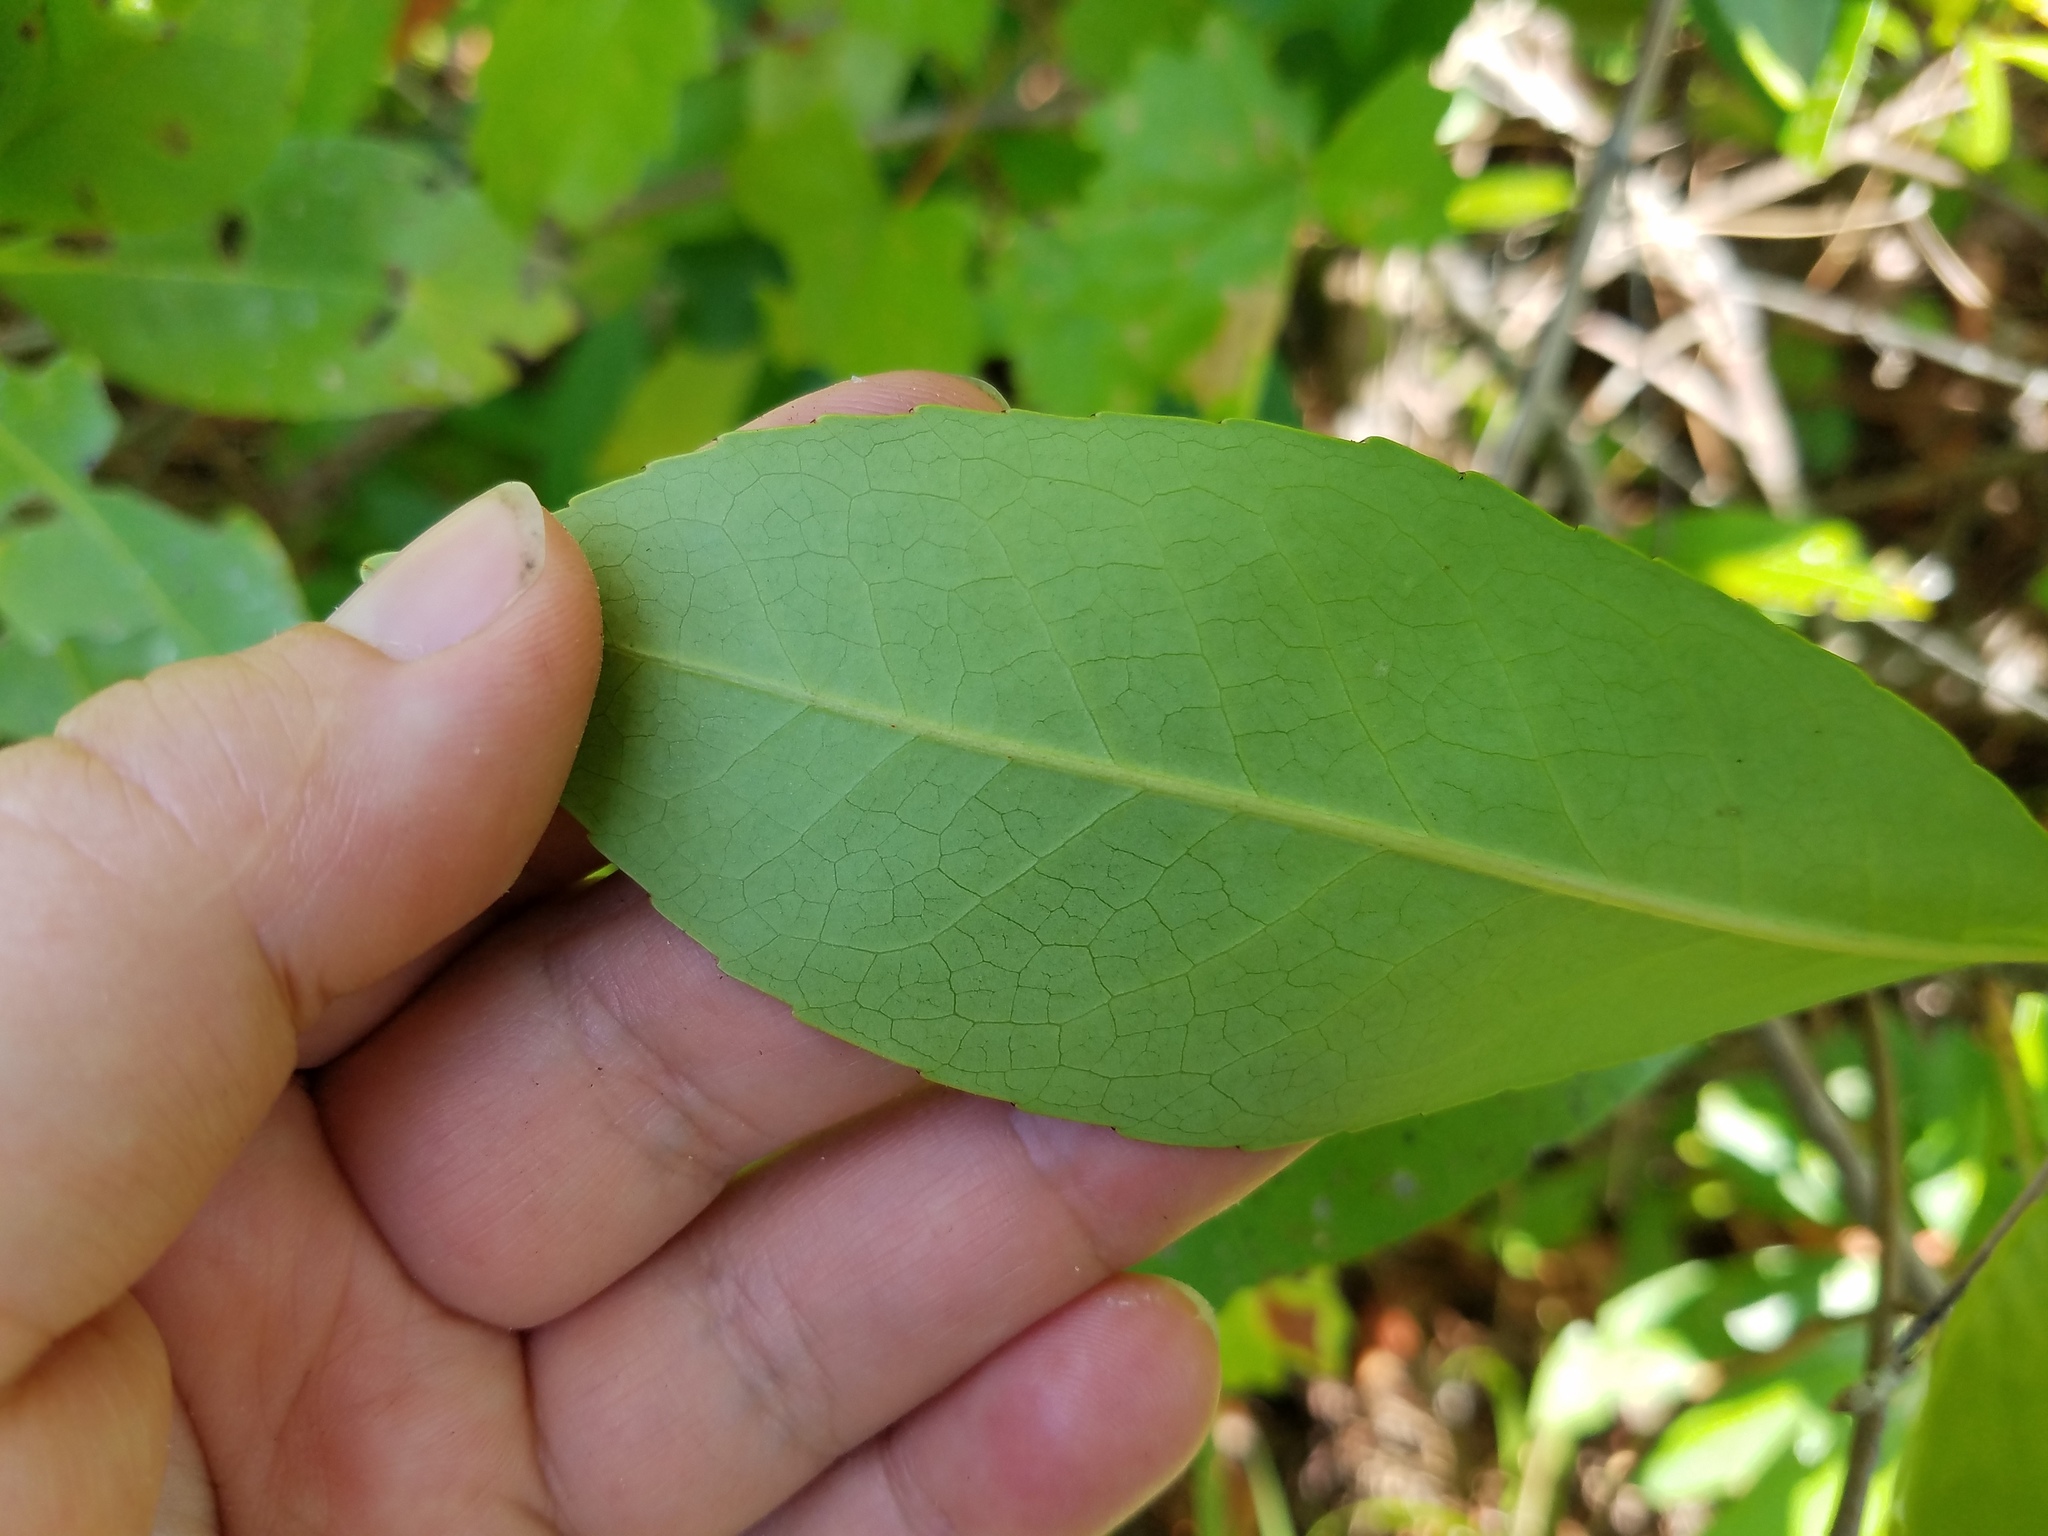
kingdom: Plantae
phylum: Tracheophyta
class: Magnoliopsida
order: Ericales
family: Theaceae
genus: Gordonia
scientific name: Gordonia lasianthus
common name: Loblolly bay
